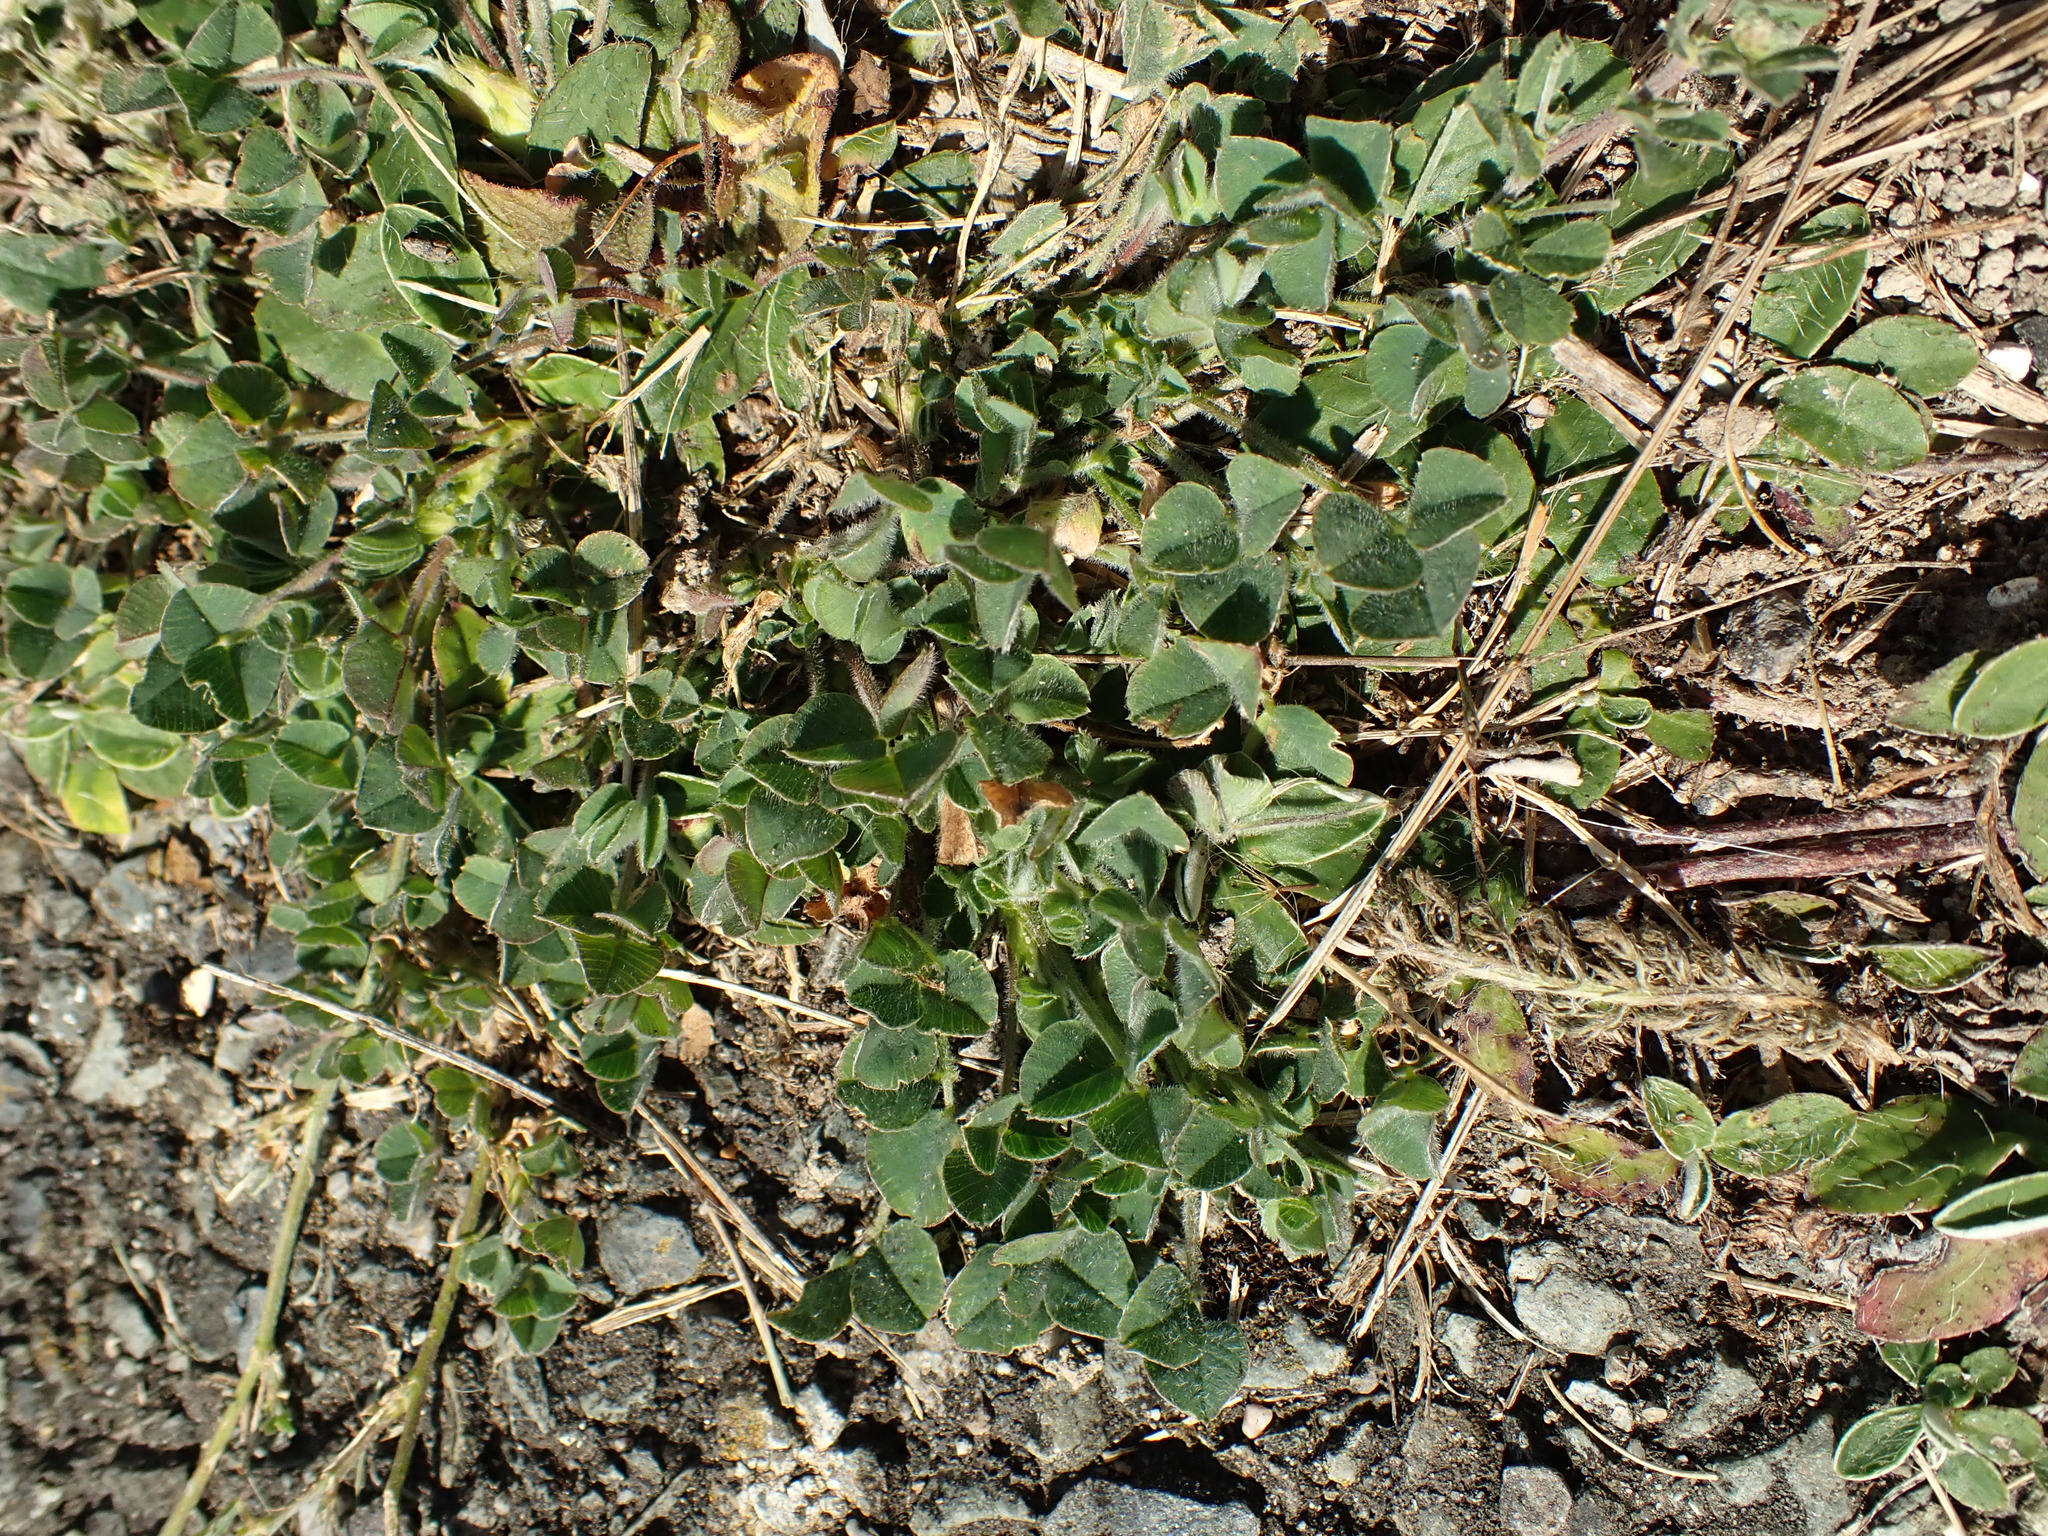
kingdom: Plantae
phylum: Tracheophyta
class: Magnoliopsida
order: Fabales
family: Fabaceae
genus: Medicago
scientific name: Medicago lupulina
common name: Black medick
